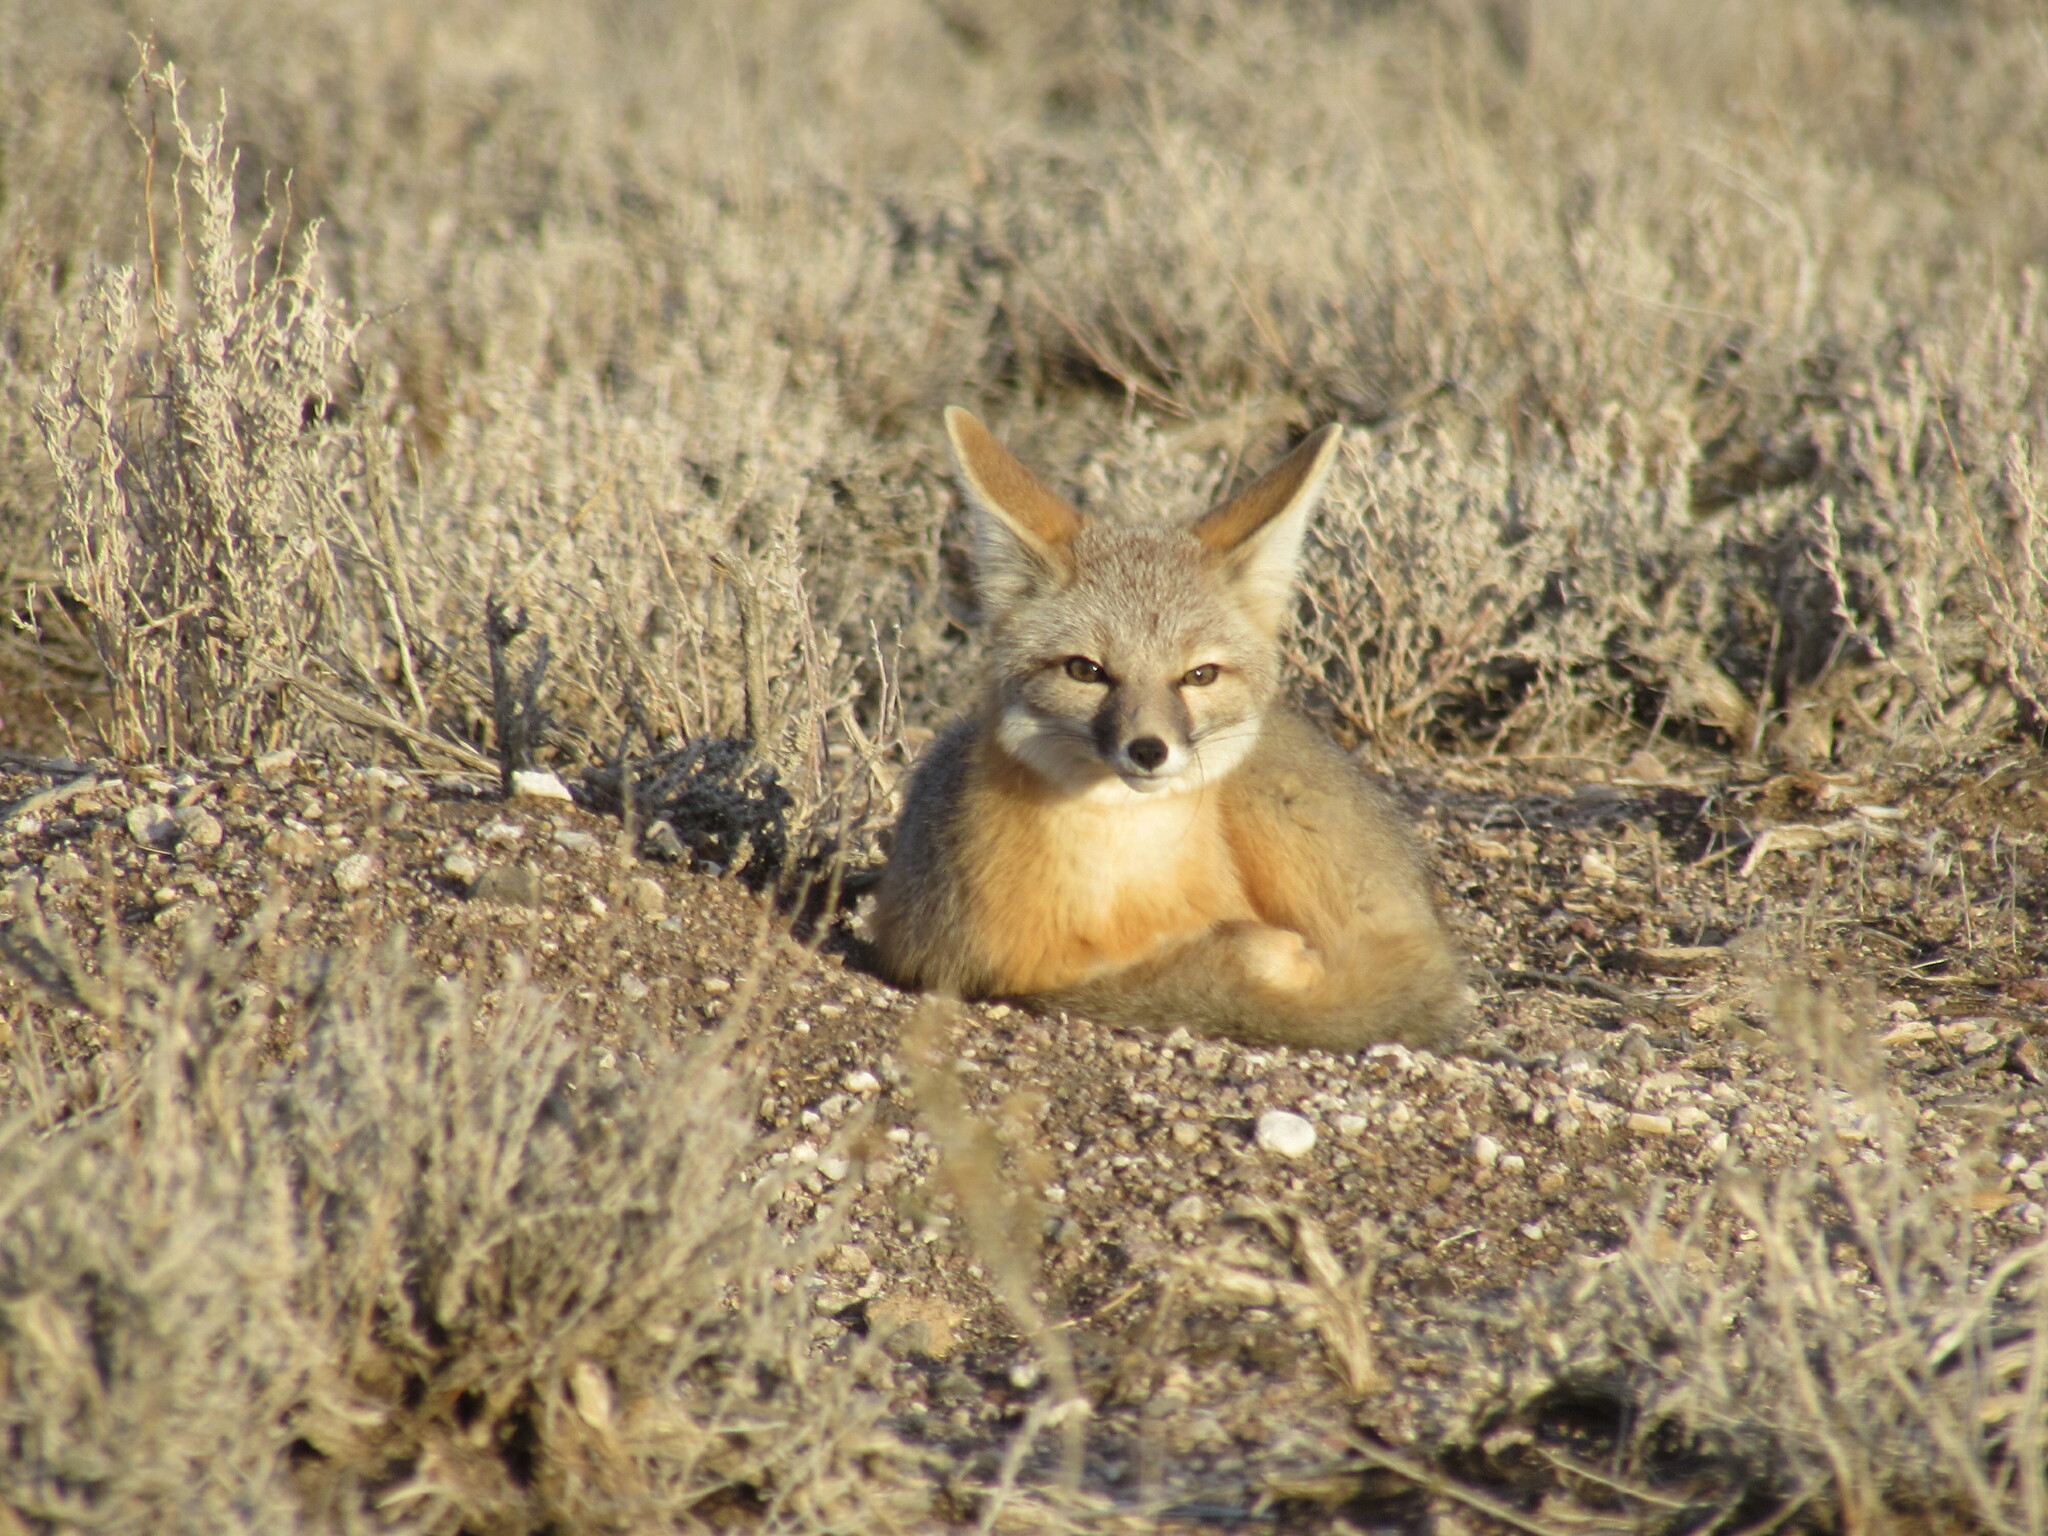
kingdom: Animalia
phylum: Chordata
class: Mammalia
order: Carnivora
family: Canidae
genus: Vulpes
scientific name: Vulpes macrotis
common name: Kit fox
